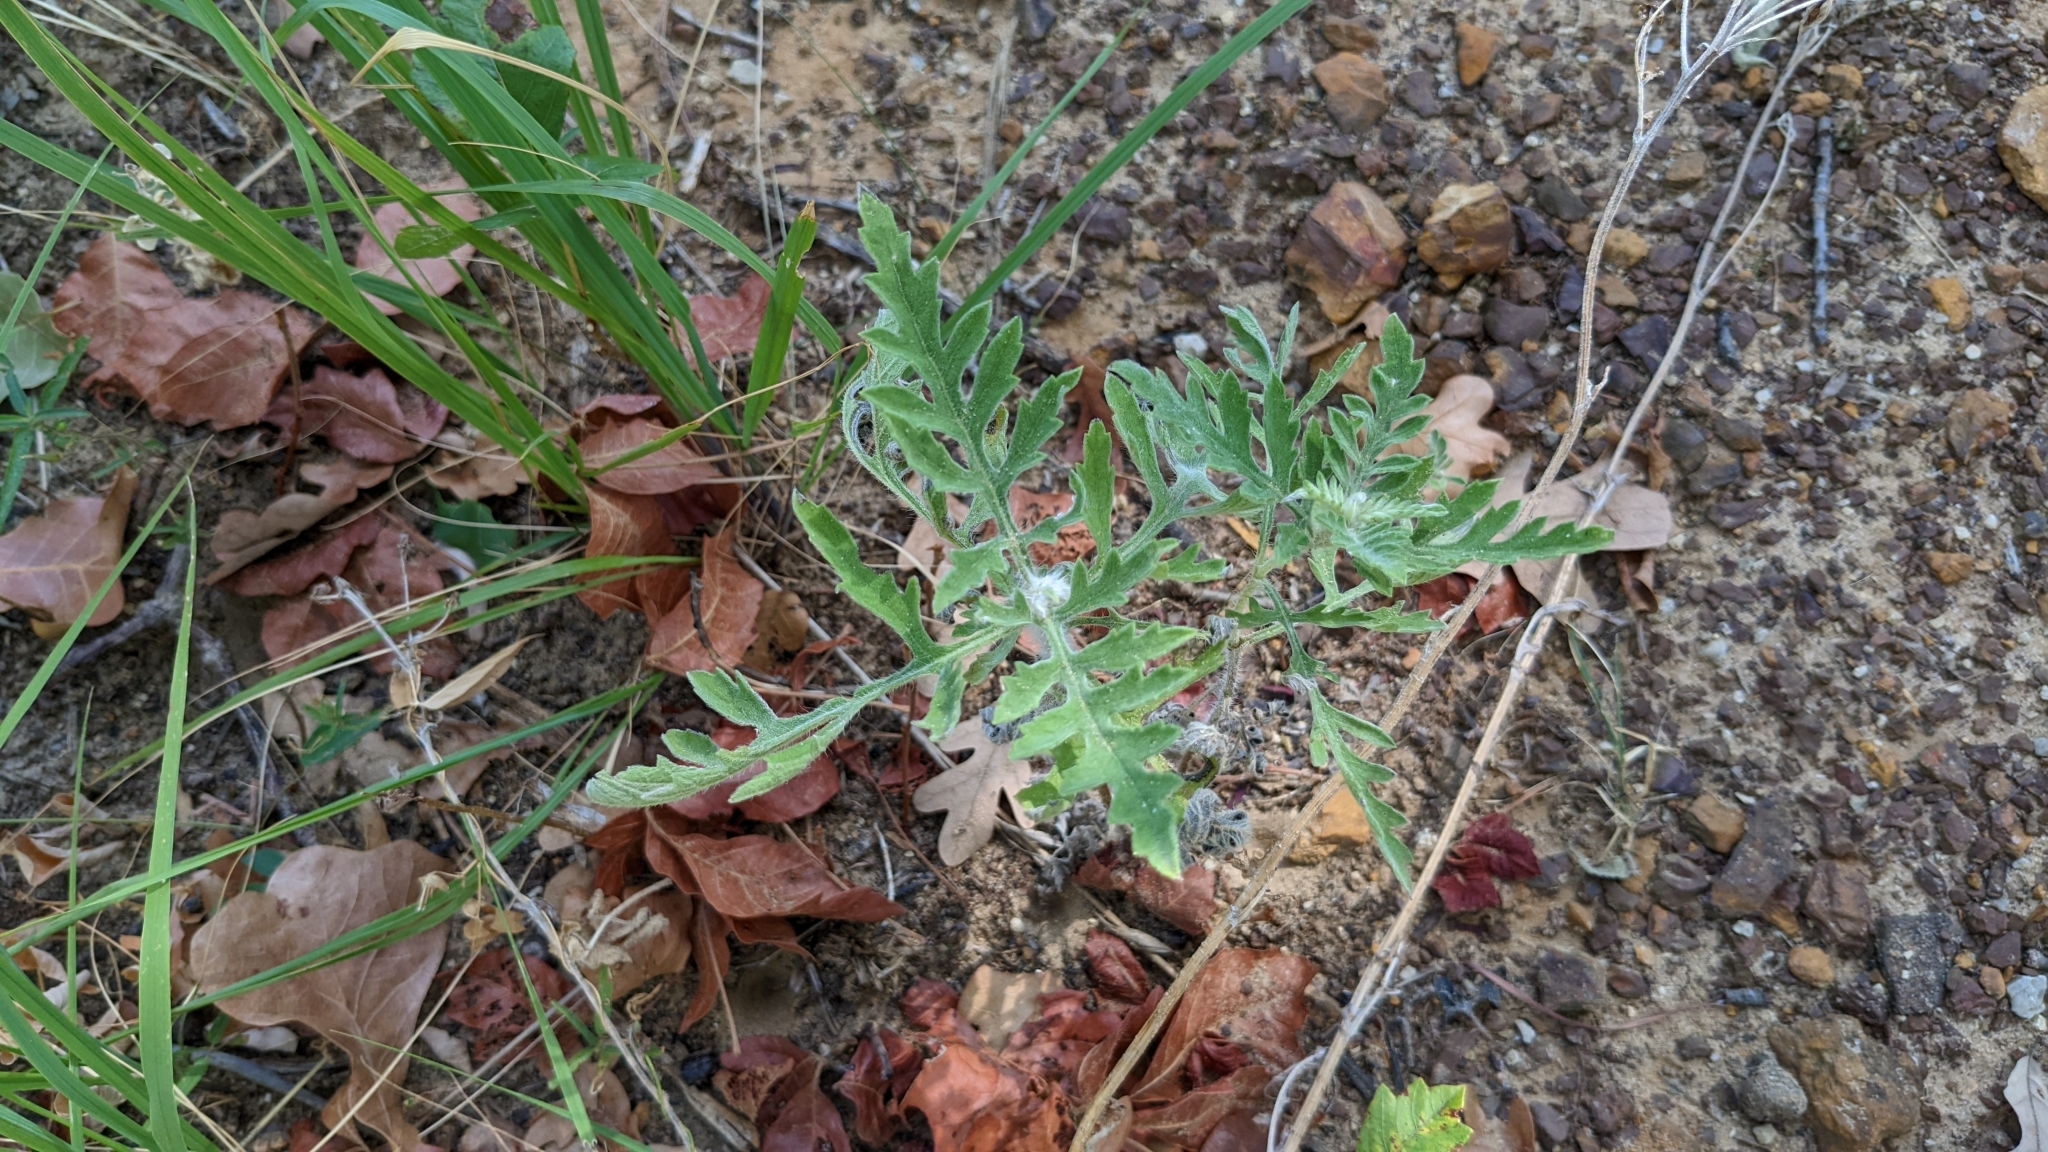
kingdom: Plantae
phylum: Tracheophyta
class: Magnoliopsida
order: Asterales
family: Asteraceae
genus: Ambrosia
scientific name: Ambrosia psilostachya
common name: Perennial ragweed
